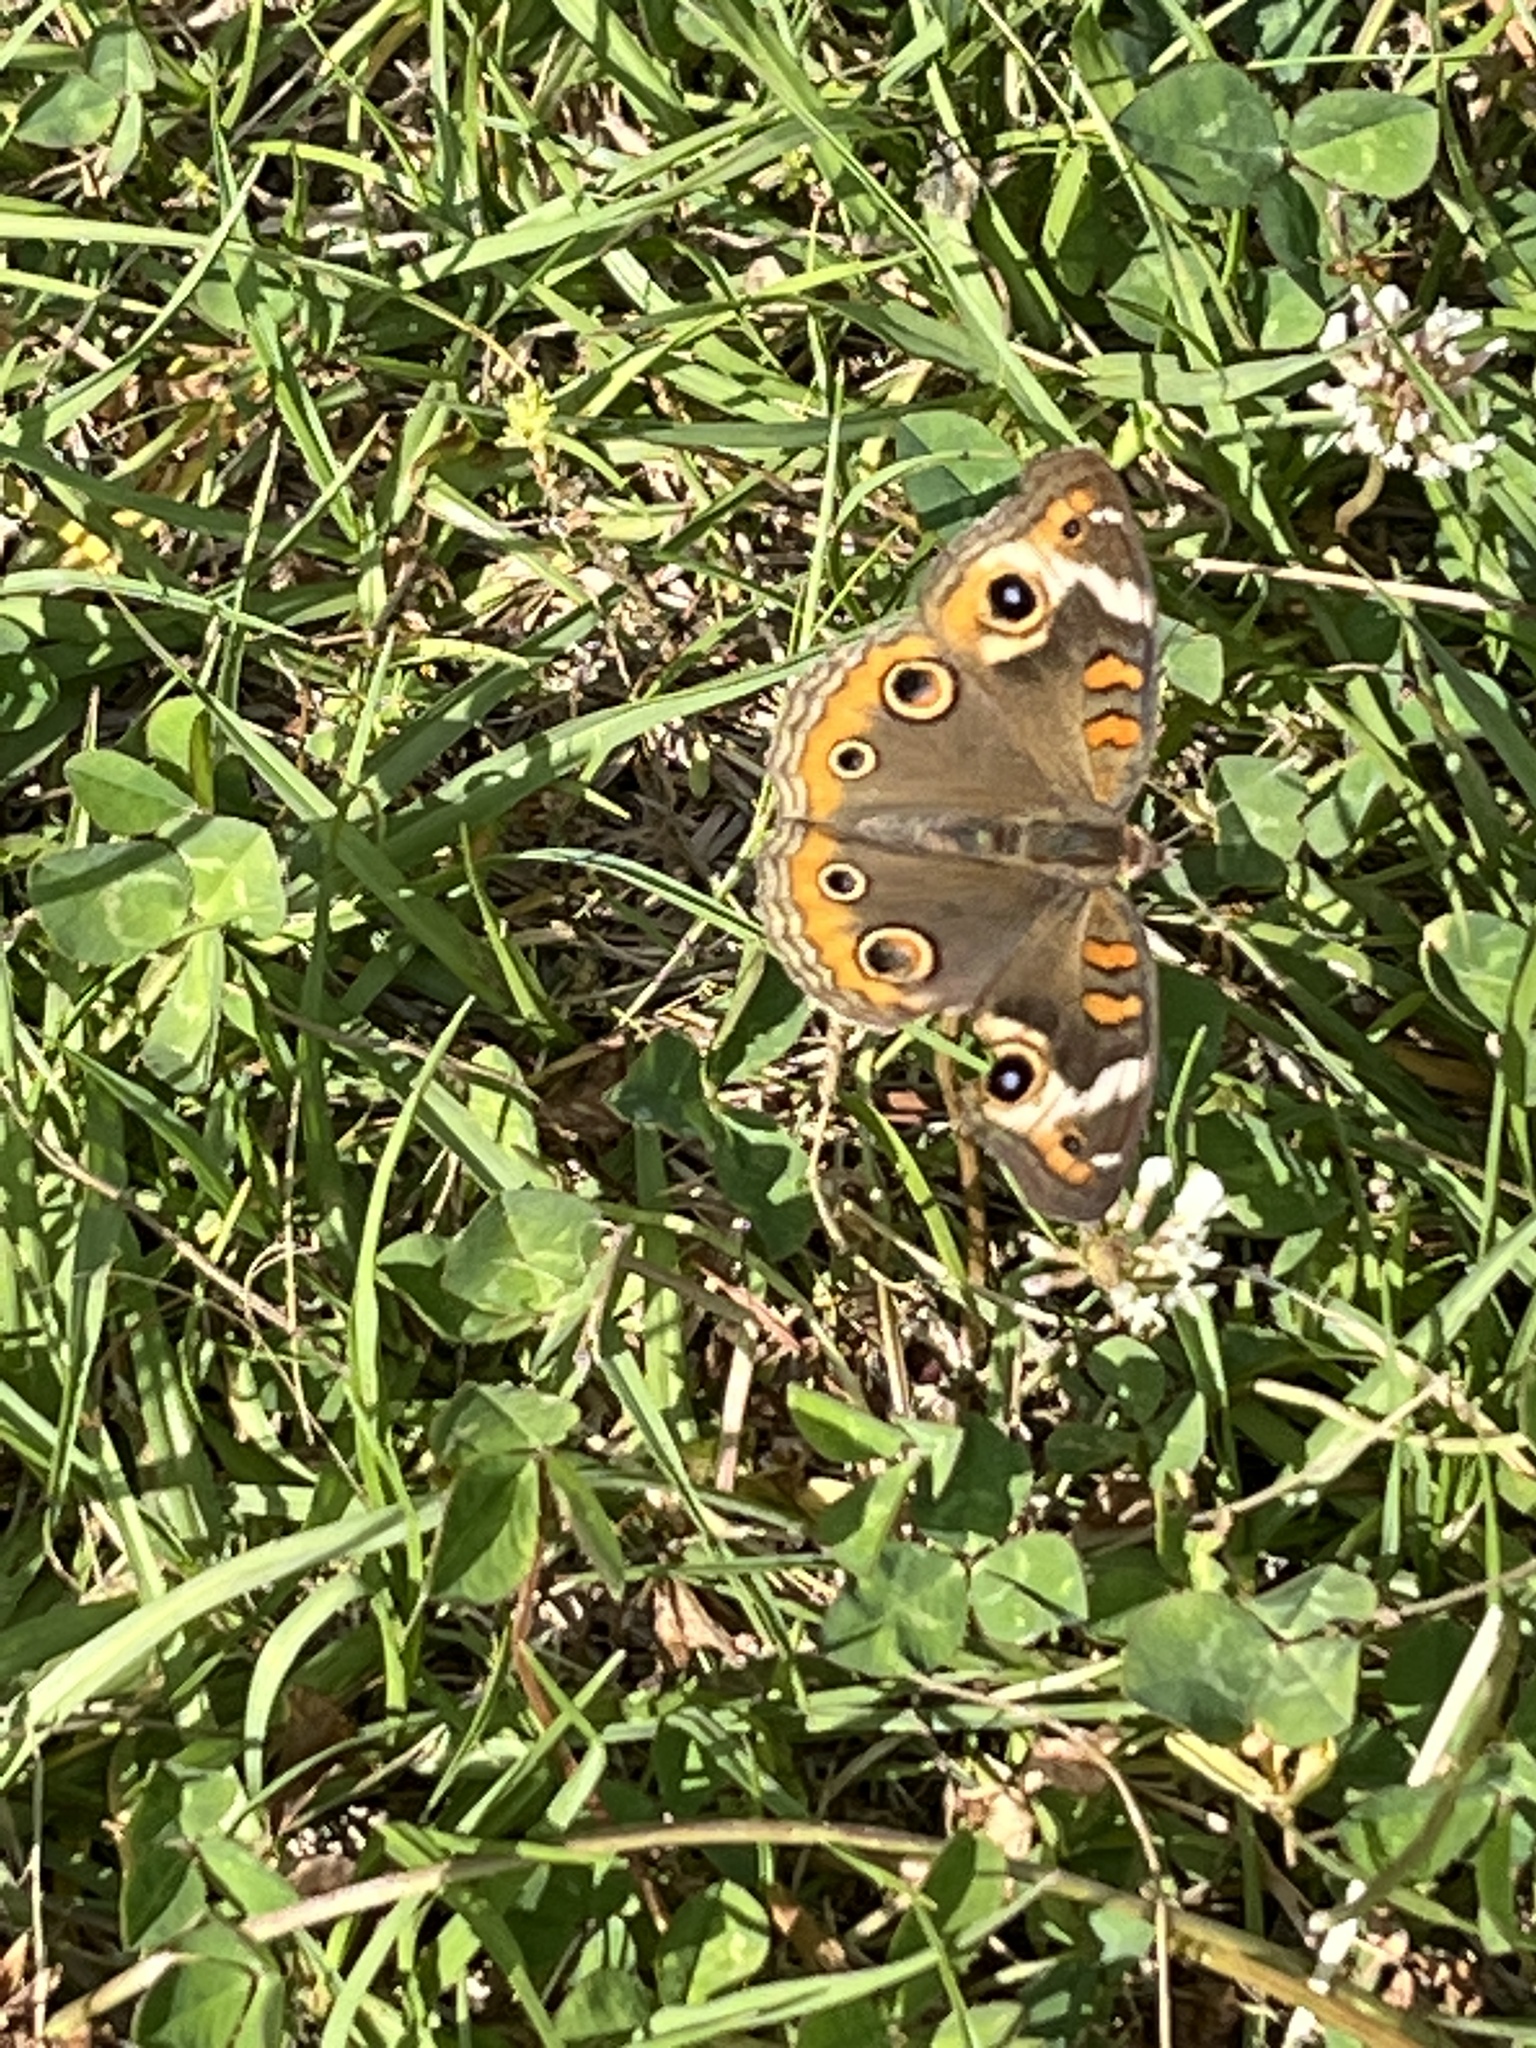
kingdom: Animalia
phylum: Arthropoda
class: Insecta
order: Lepidoptera
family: Nymphalidae
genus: Junonia
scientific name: Junonia coenia
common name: Common buckeye
